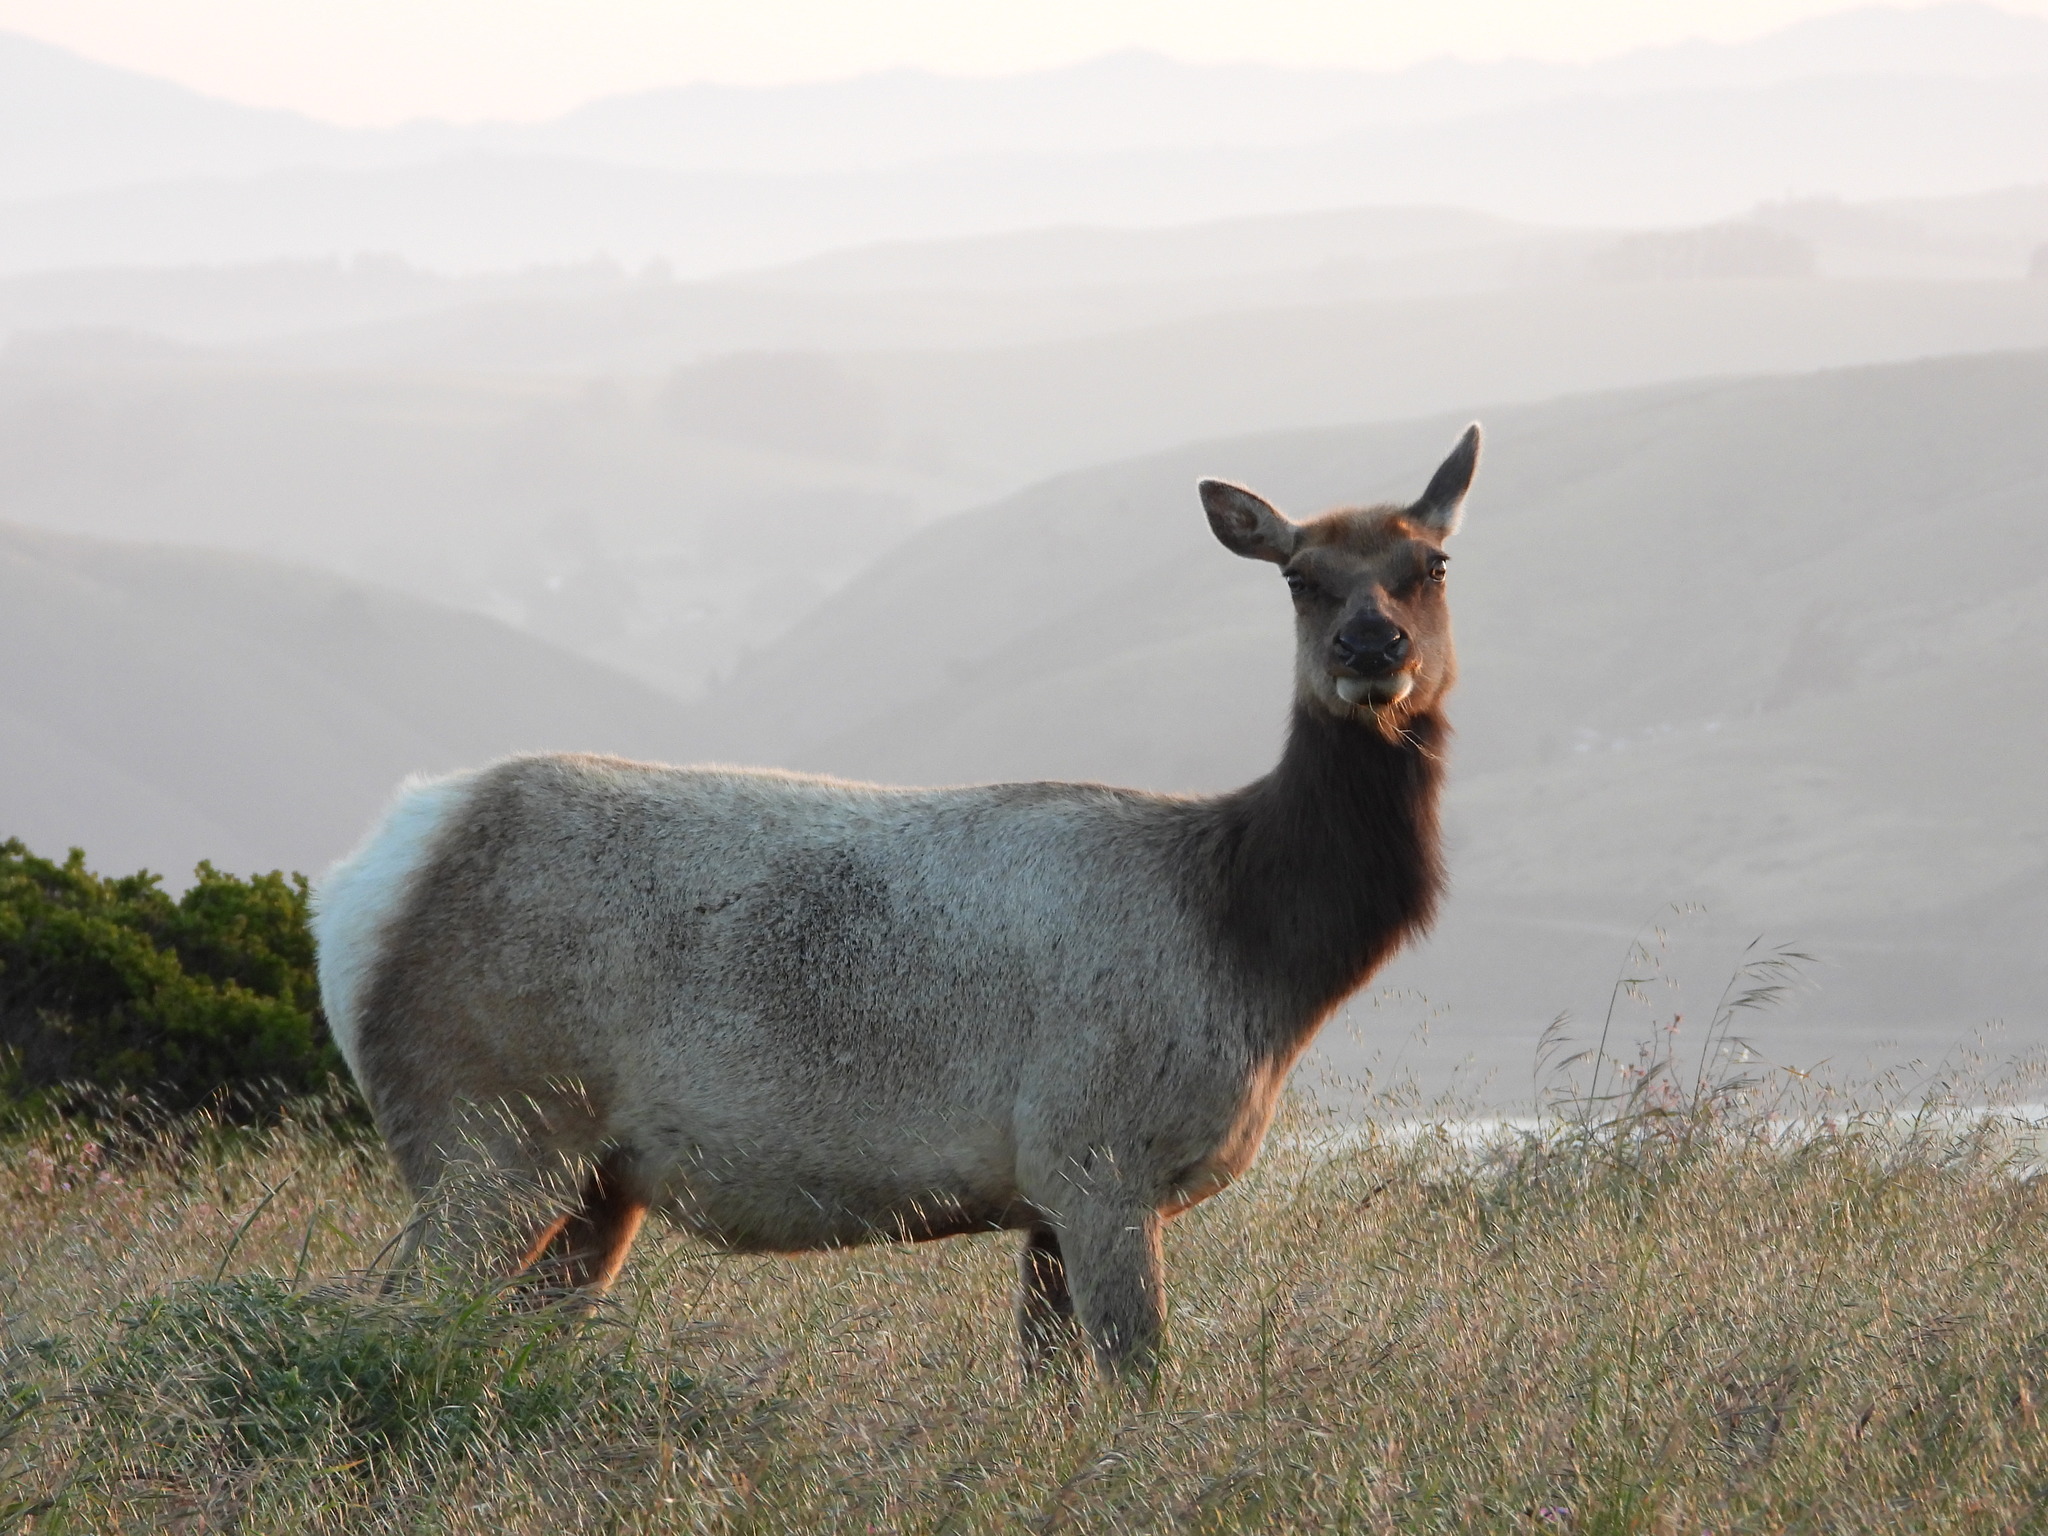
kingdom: Animalia
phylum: Chordata
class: Mammalia
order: Artiodactyla
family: Cervidae
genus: Cervus
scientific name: Cervus elaphus
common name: Red deer
